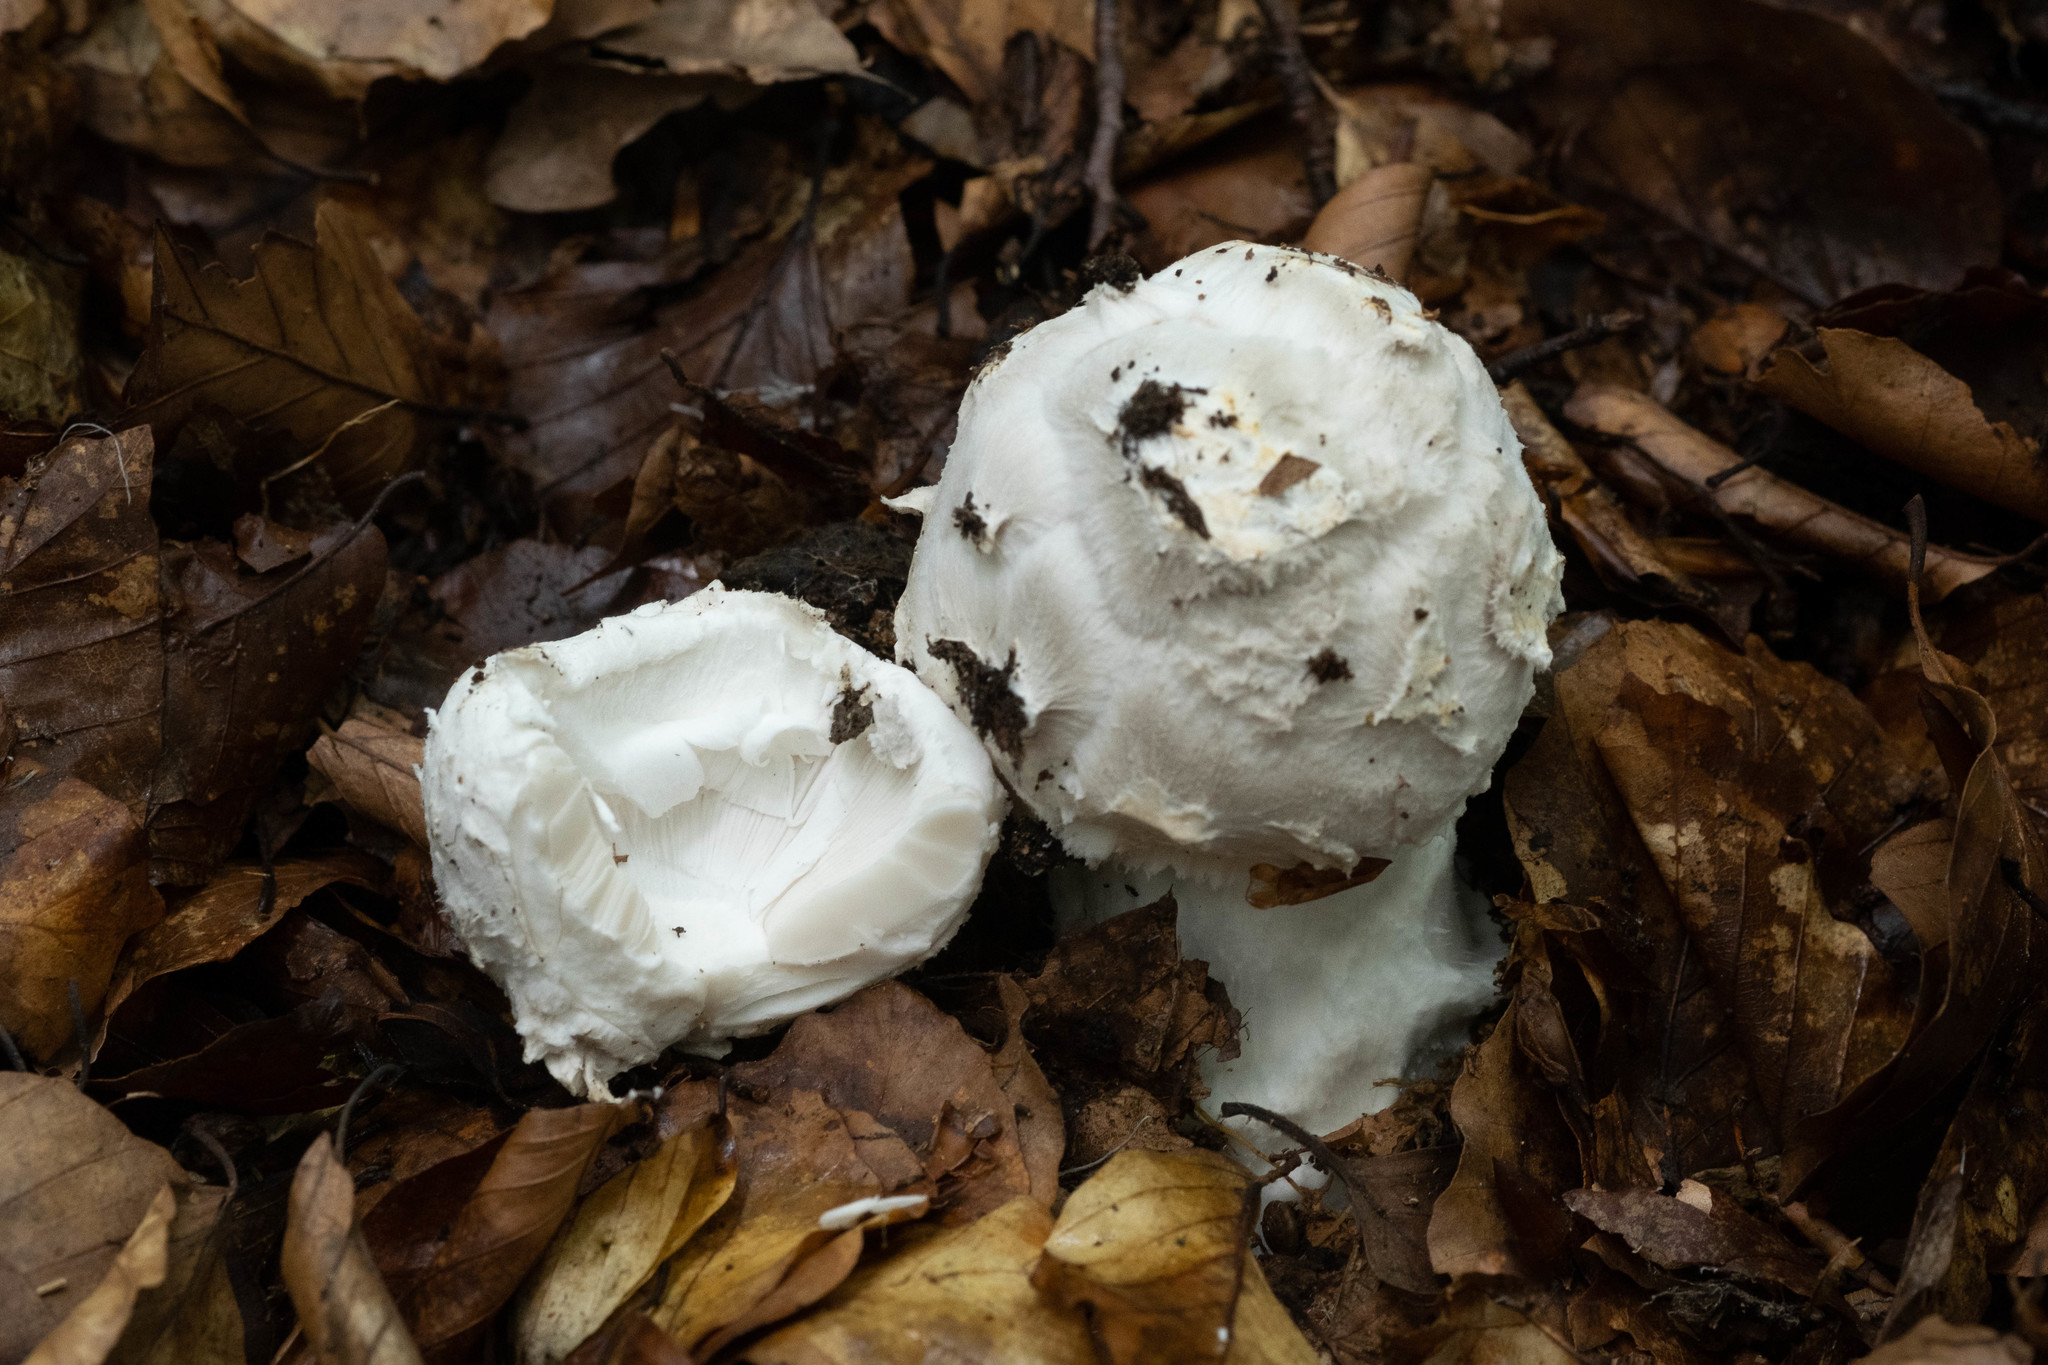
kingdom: Fungi
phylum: Basidiomycota
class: Agaricomycetes
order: Agaricales
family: Amanitaceae
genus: Amanita
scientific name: Amanita strobiliformis
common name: Warted amanita
